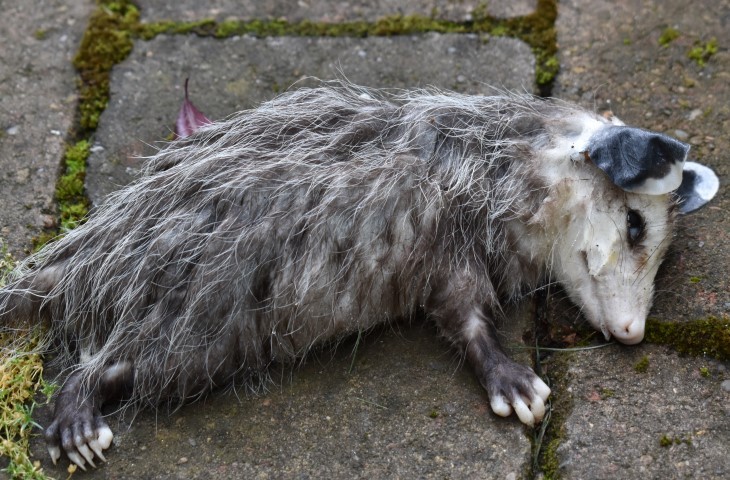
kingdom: Animalia
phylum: Chordata
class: Mammalia
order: Didelphimorphia
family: Didelphidae
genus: Didelphis
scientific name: Didelphis virginiana
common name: Virginia opossum
